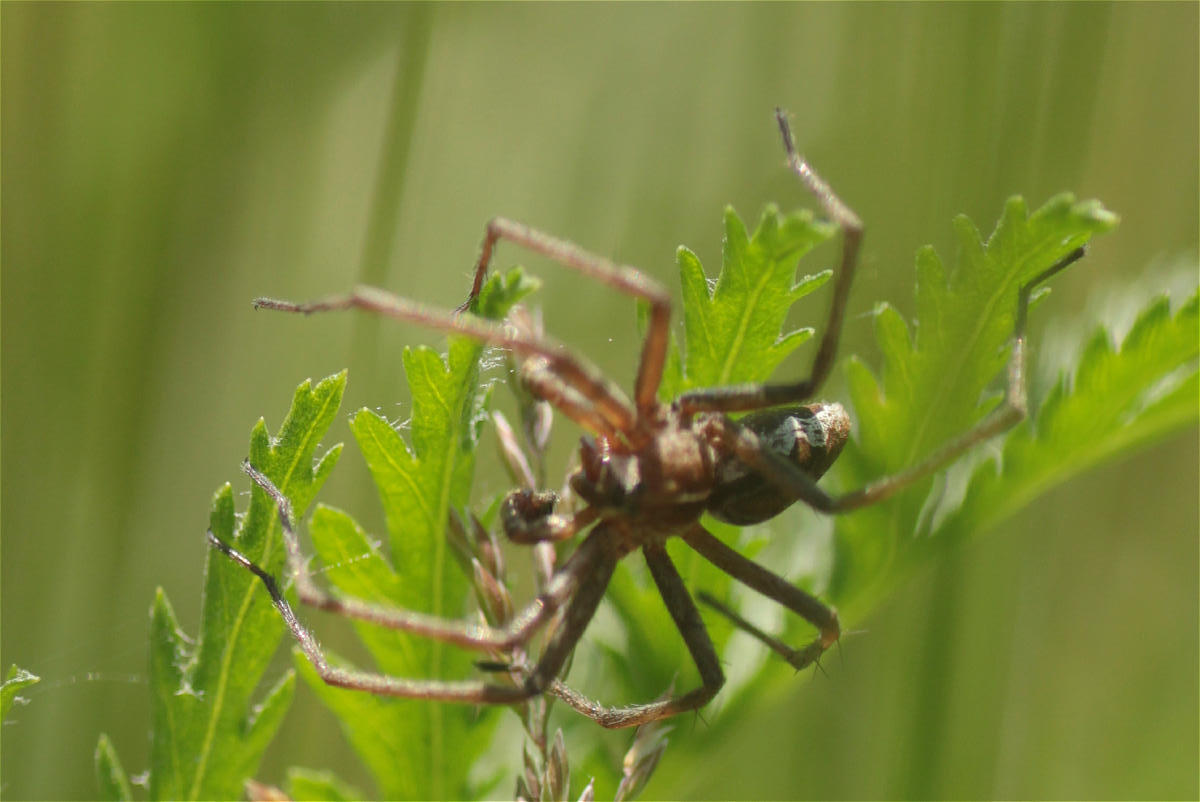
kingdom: Animalia
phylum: Arthropoda
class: Arachnida
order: Araneae
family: Pisauridae
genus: Pisaura
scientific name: Pisaura mirabilis
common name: Tent spider
